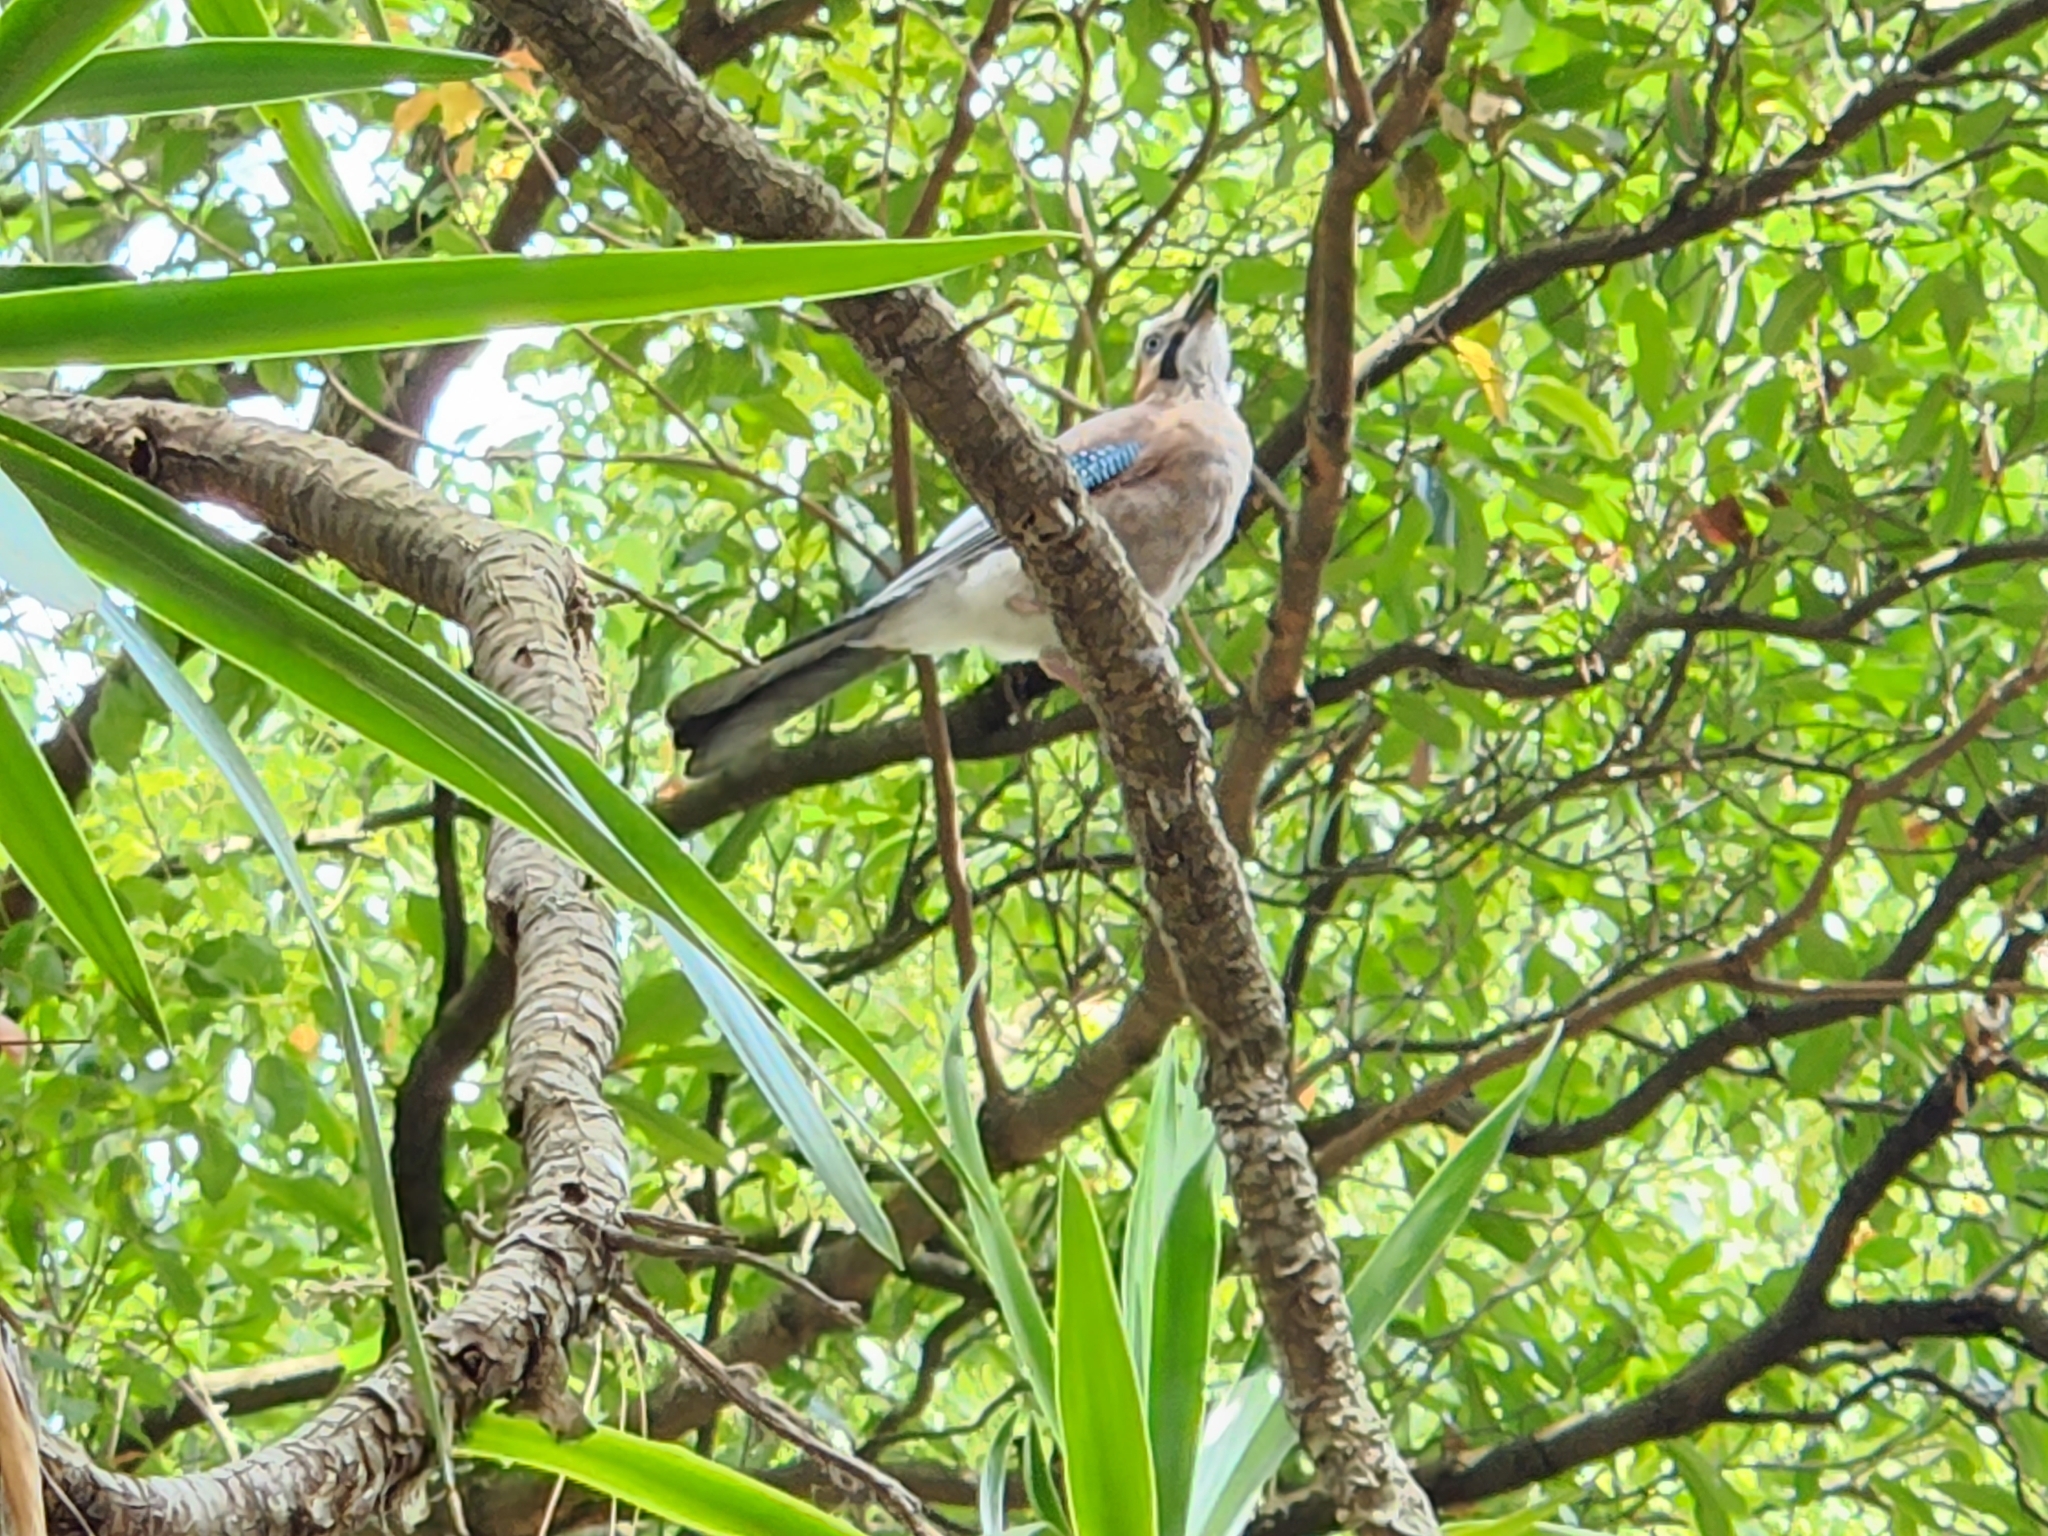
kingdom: Animalia
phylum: Chordata
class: Aves
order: Passeriformes
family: Corvidae
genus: Garrulus
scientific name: Garrulus glandarius
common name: Eurasian jay
